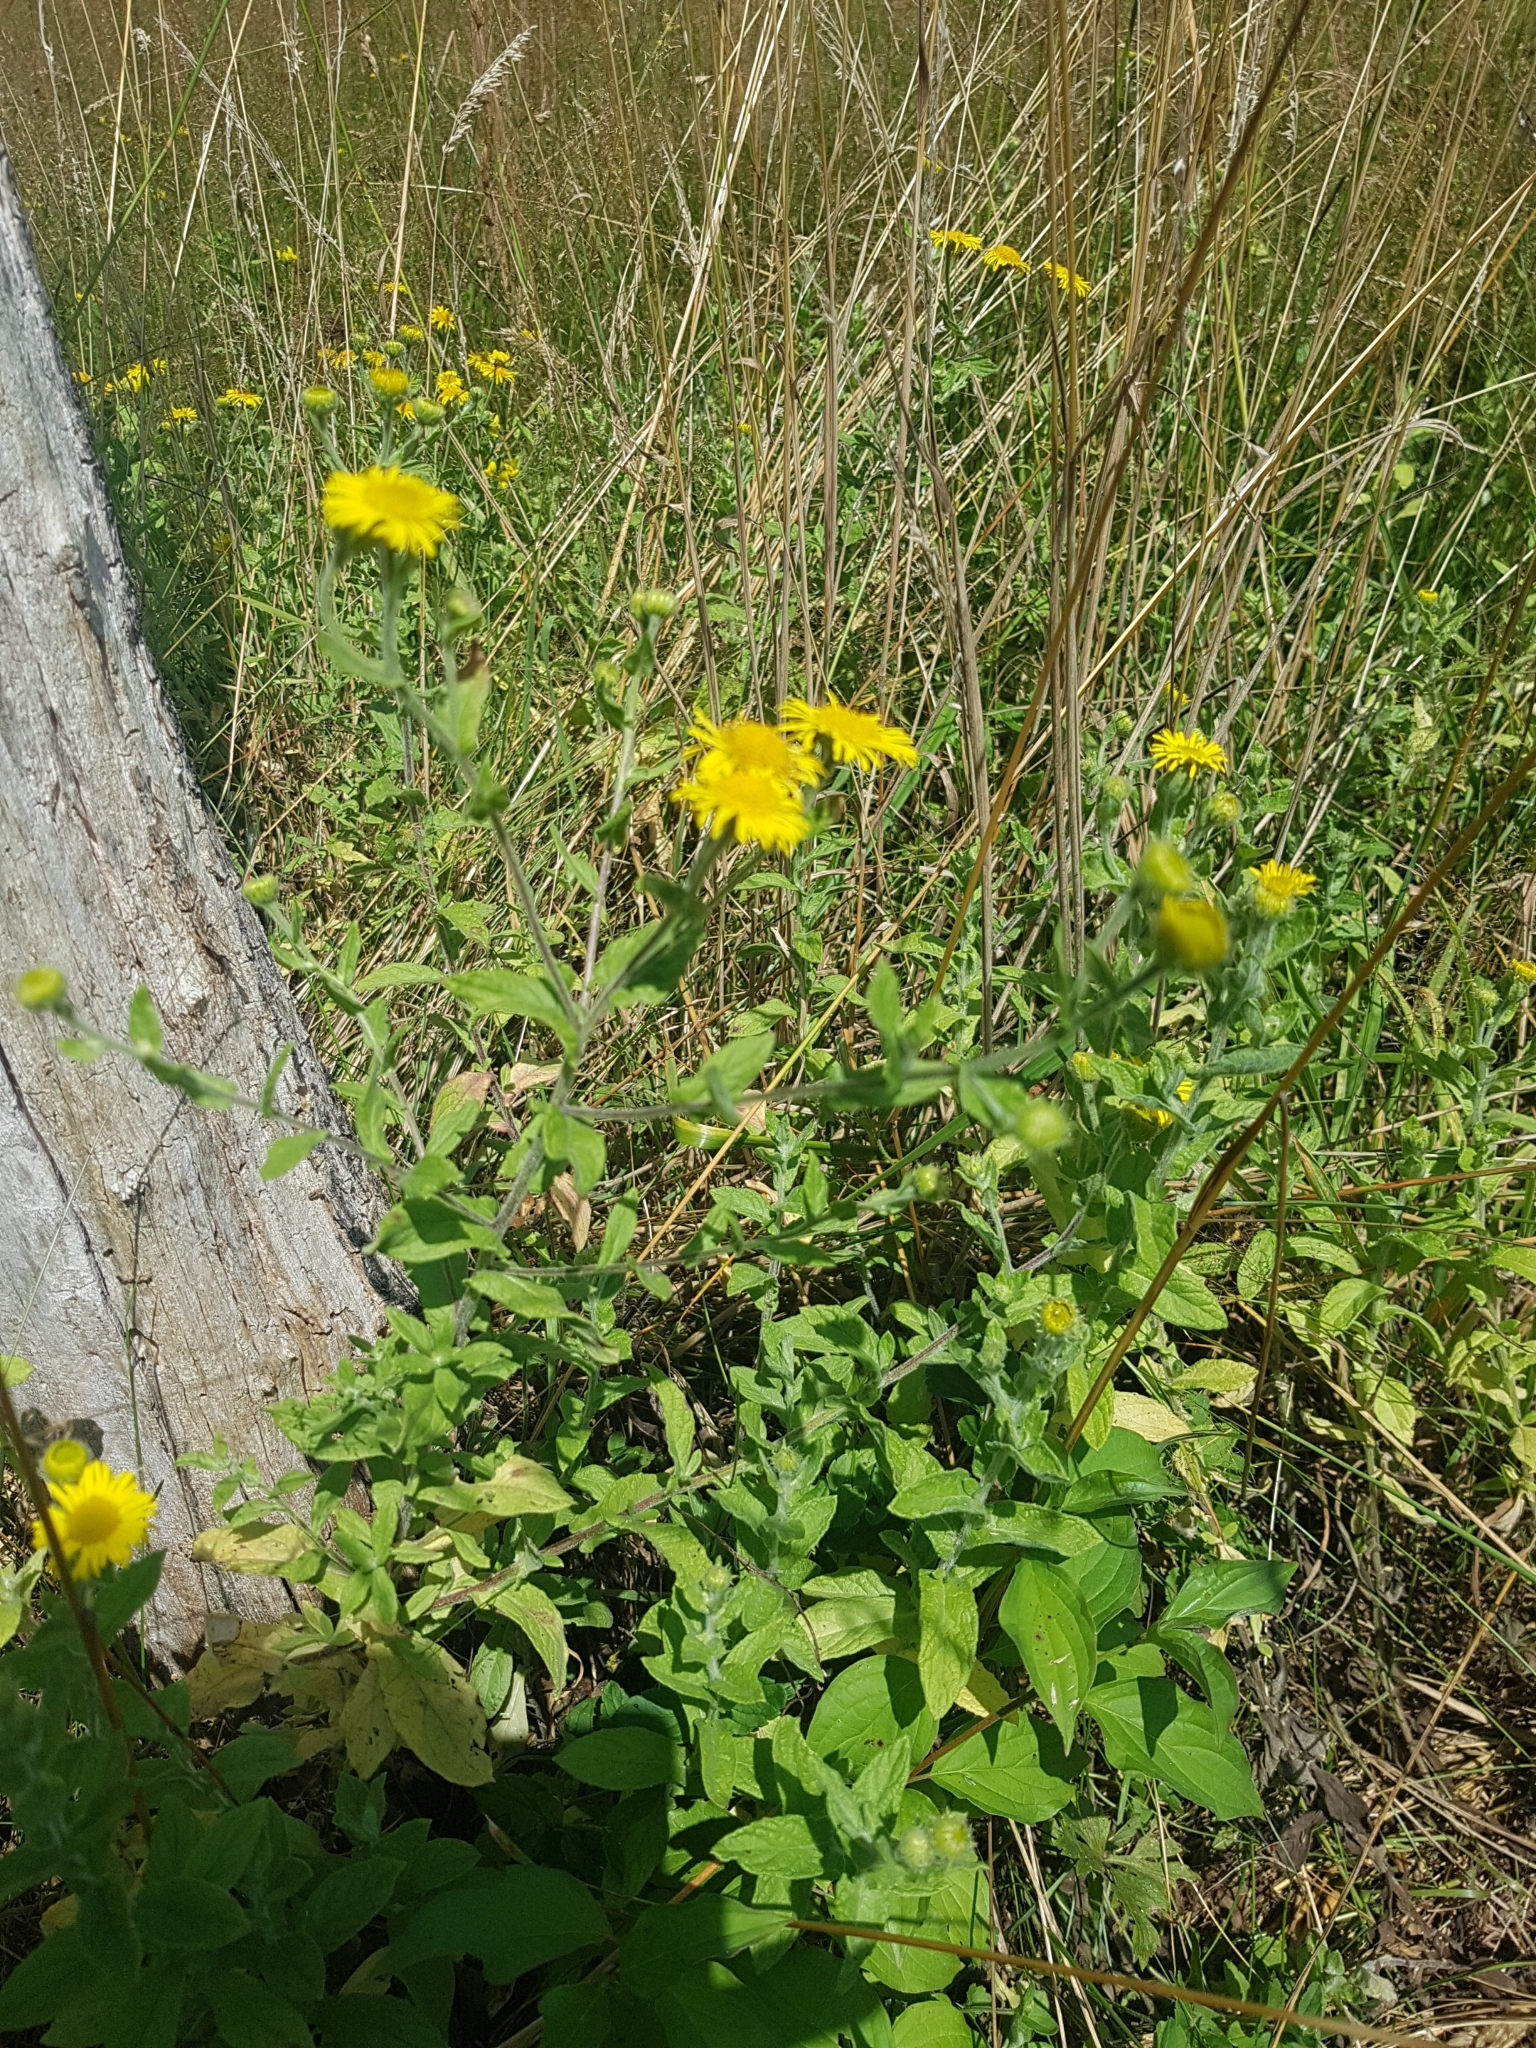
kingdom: Plantae
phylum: Tracheophyta
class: Magnoliopsida
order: Asterales
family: Asteraceae
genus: Pulicaria
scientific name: Pulicaria dysenterica
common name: Common fleabane
